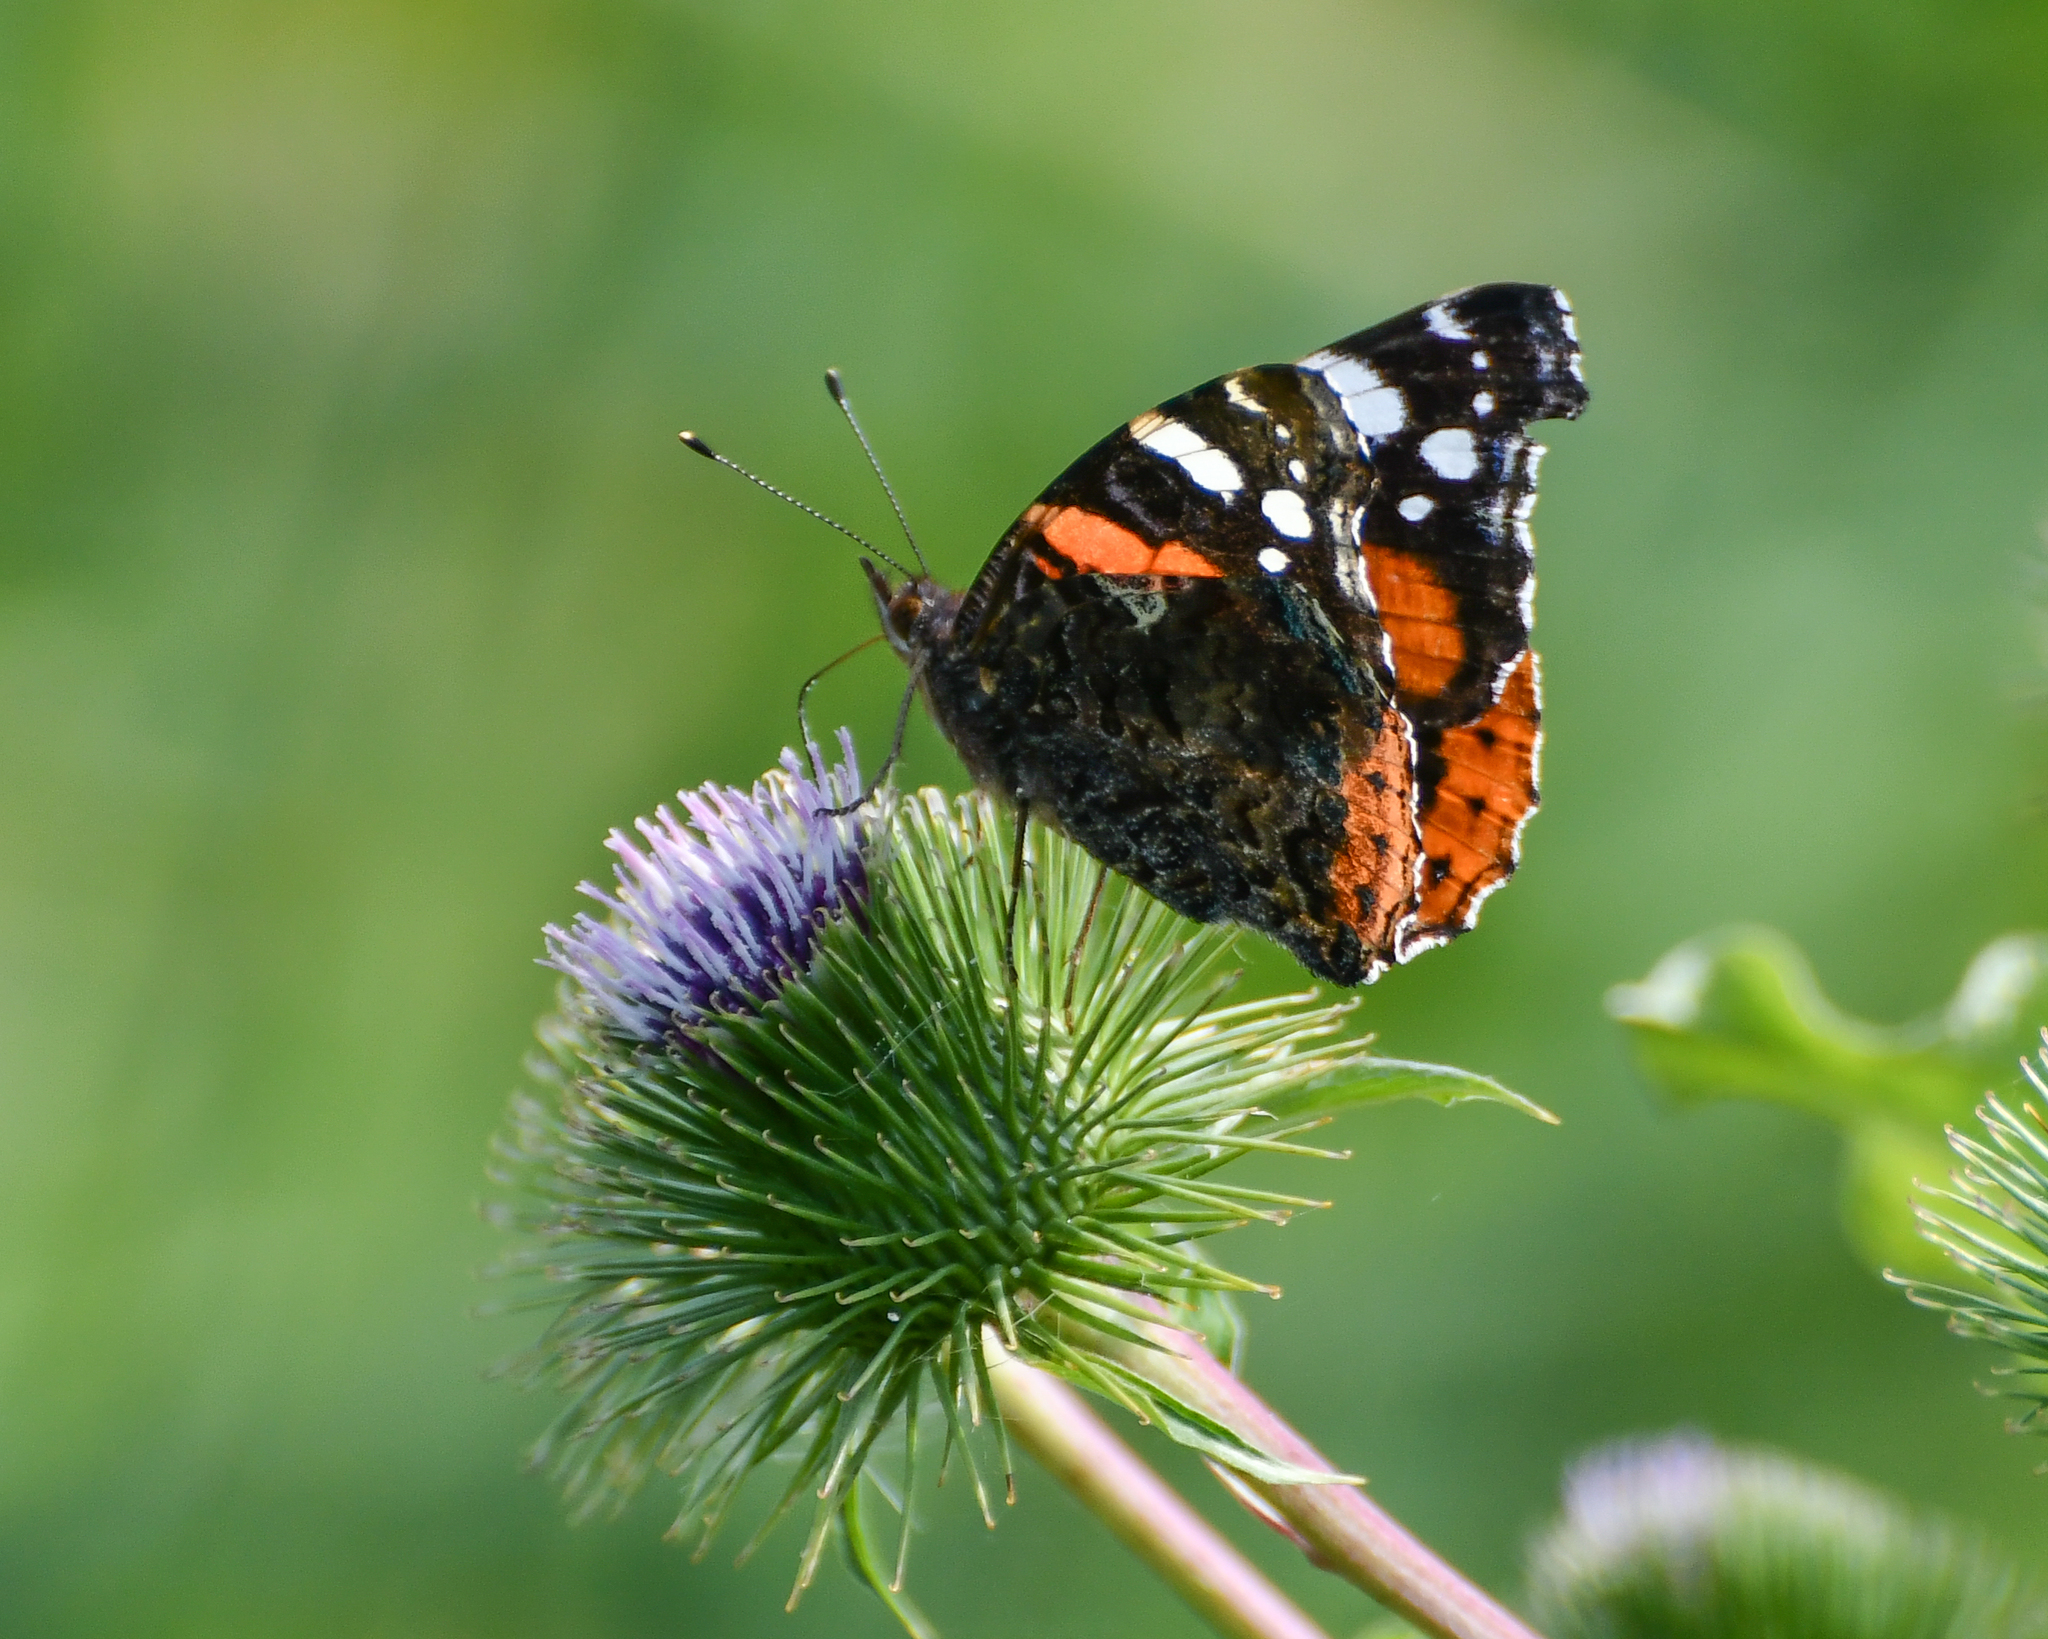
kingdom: Animalia
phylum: Arthropoda
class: Insecta
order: Lepidoptera
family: Nymphalidae
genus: Vanessa
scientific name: Vanessa atalanta
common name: Red admiral
